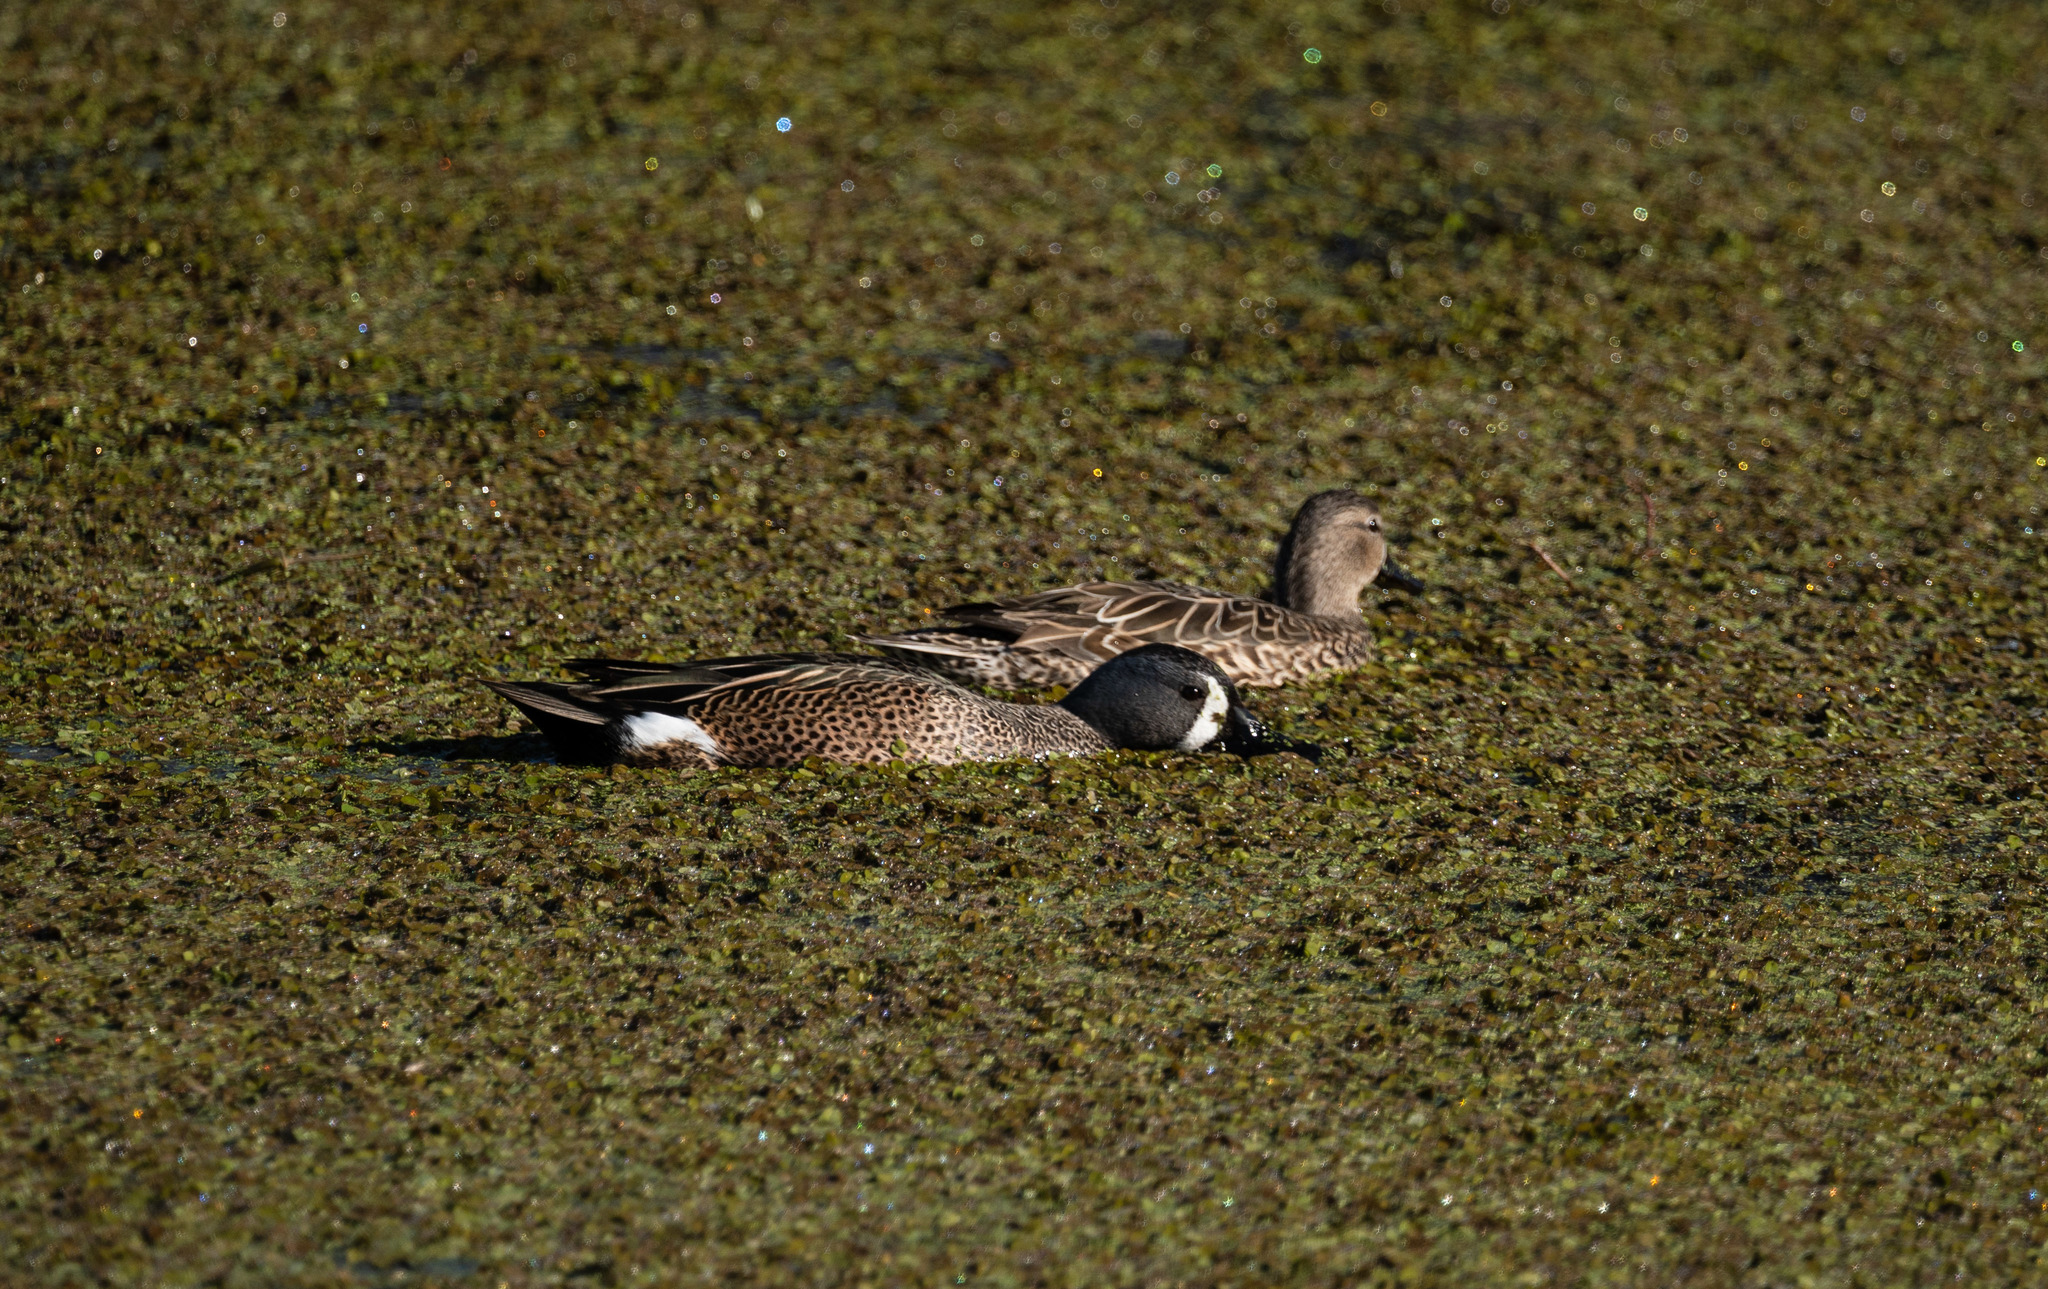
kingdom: Animalia
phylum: Chordata
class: Aves
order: Anseriformes
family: Anatidae
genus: Spatula
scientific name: Spatula discors
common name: Blue-winged teal
